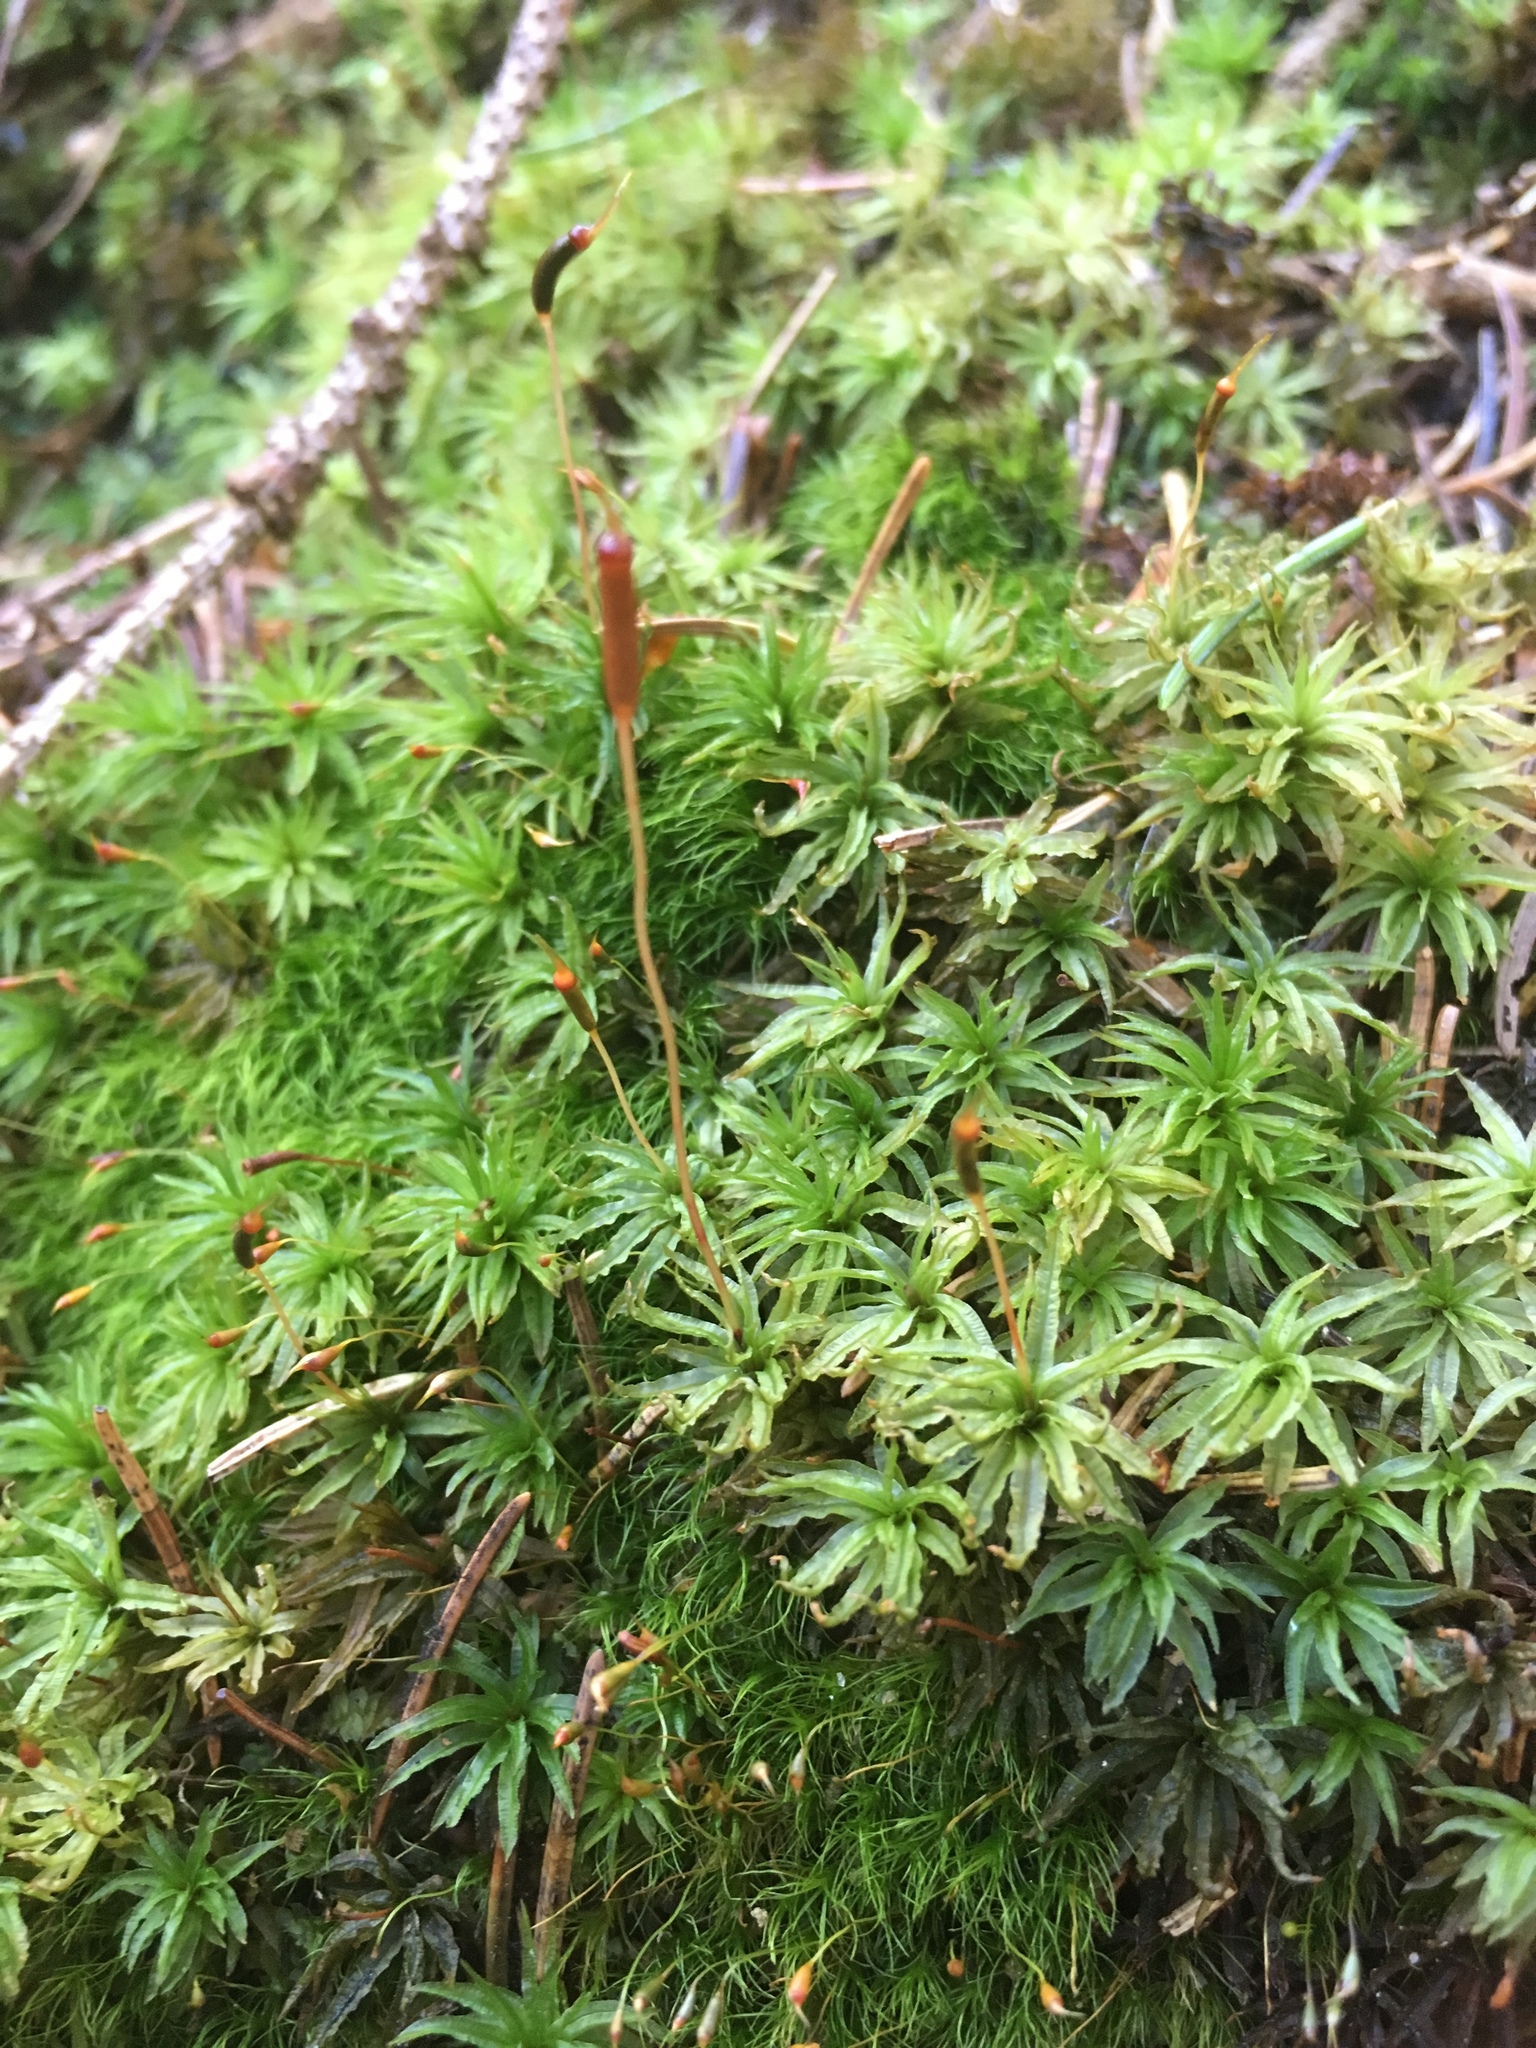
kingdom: Plantae
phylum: Bryophyta
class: Polytrichopsida
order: Polytrichales
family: Polytrichaceae
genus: Atrichum
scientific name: Atrichum undulatum
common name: Common smoothcap
